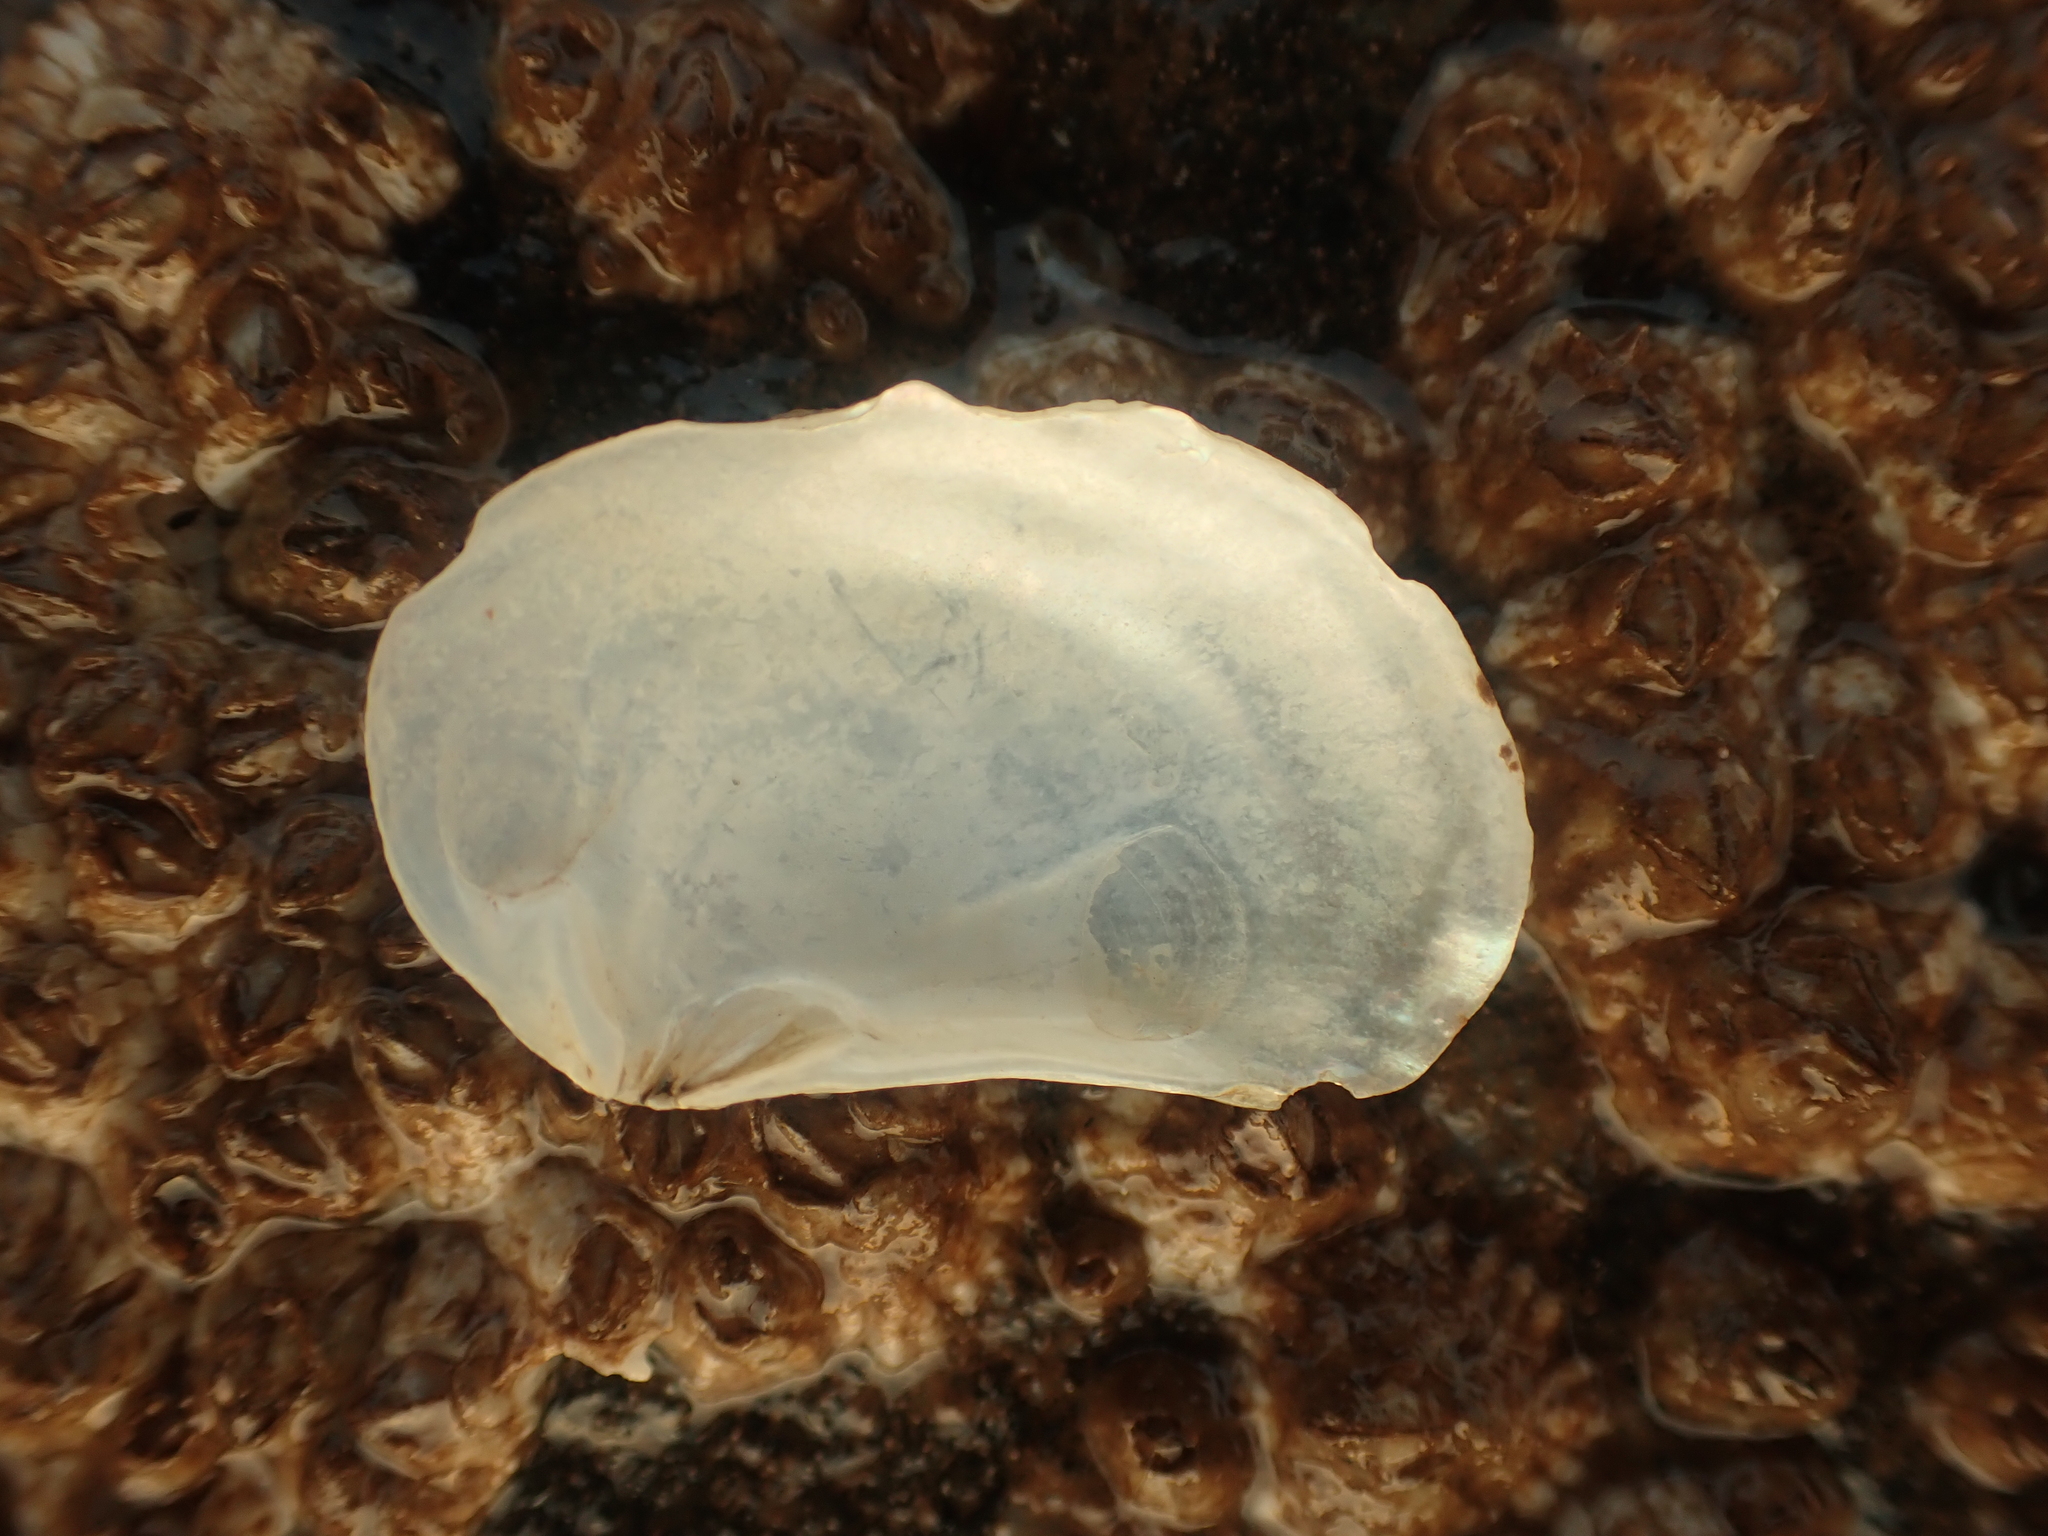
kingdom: Animalia
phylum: Mollusca
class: Bivalvia
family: Pandoridae
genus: Pandora
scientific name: Pandora gouldiana
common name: Rounded pandora
